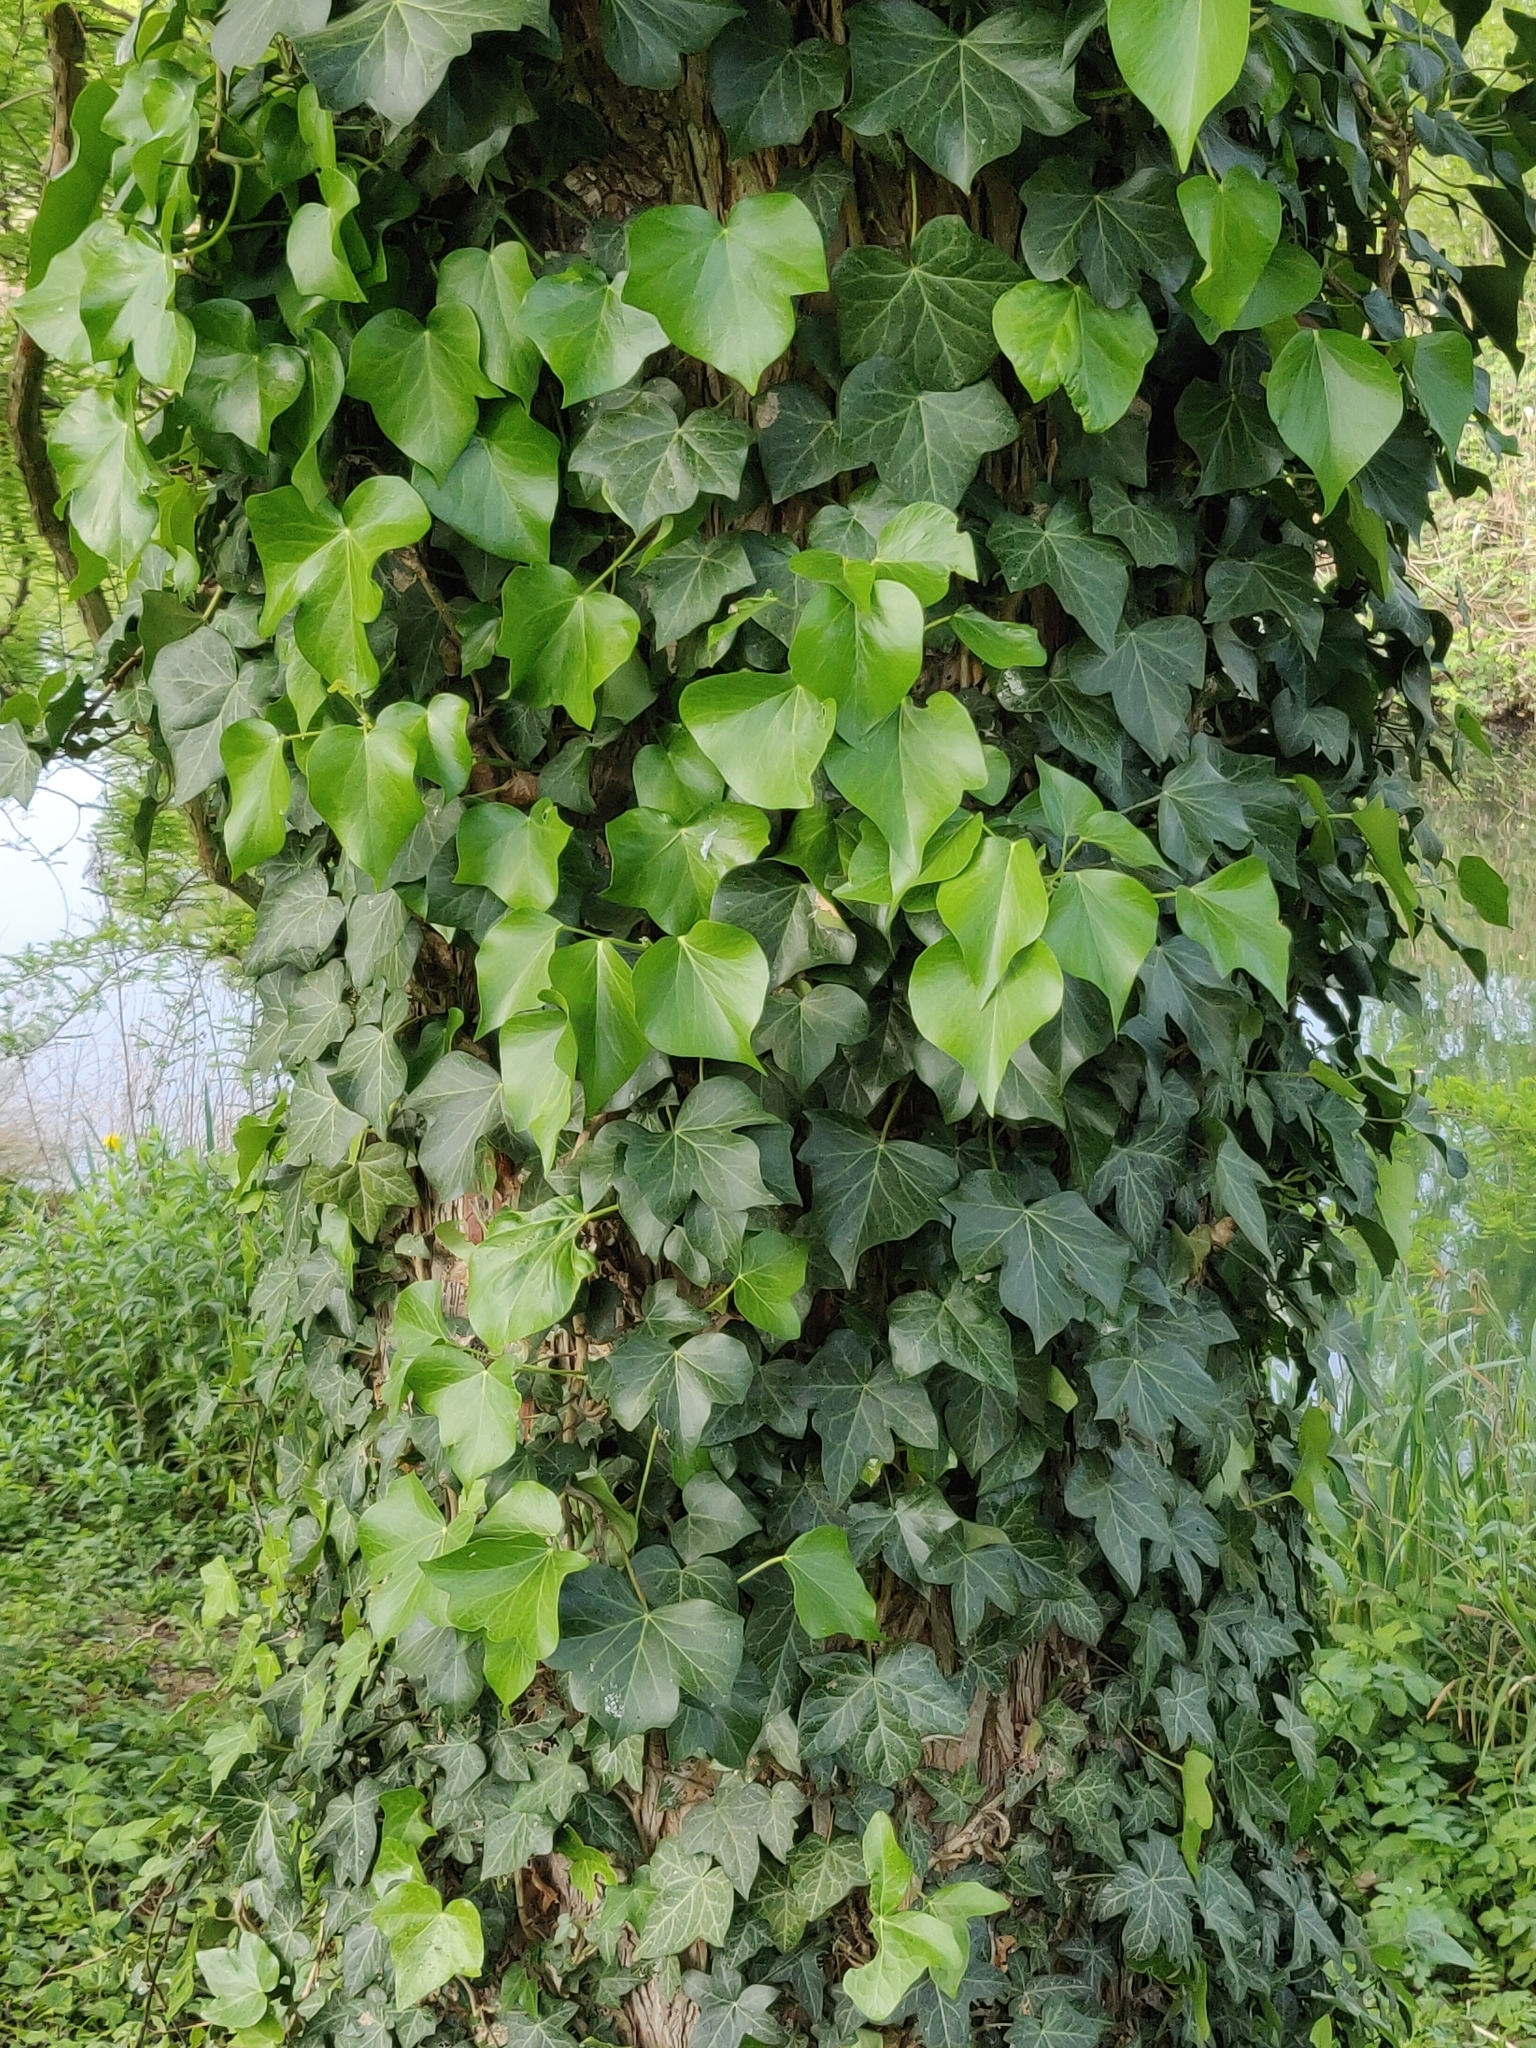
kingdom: Plantae
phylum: Tracheophyta
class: Magnoliopsida
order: Apiales
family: Araliaceae
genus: Hedera
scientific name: Hedera helix
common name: Ivy
